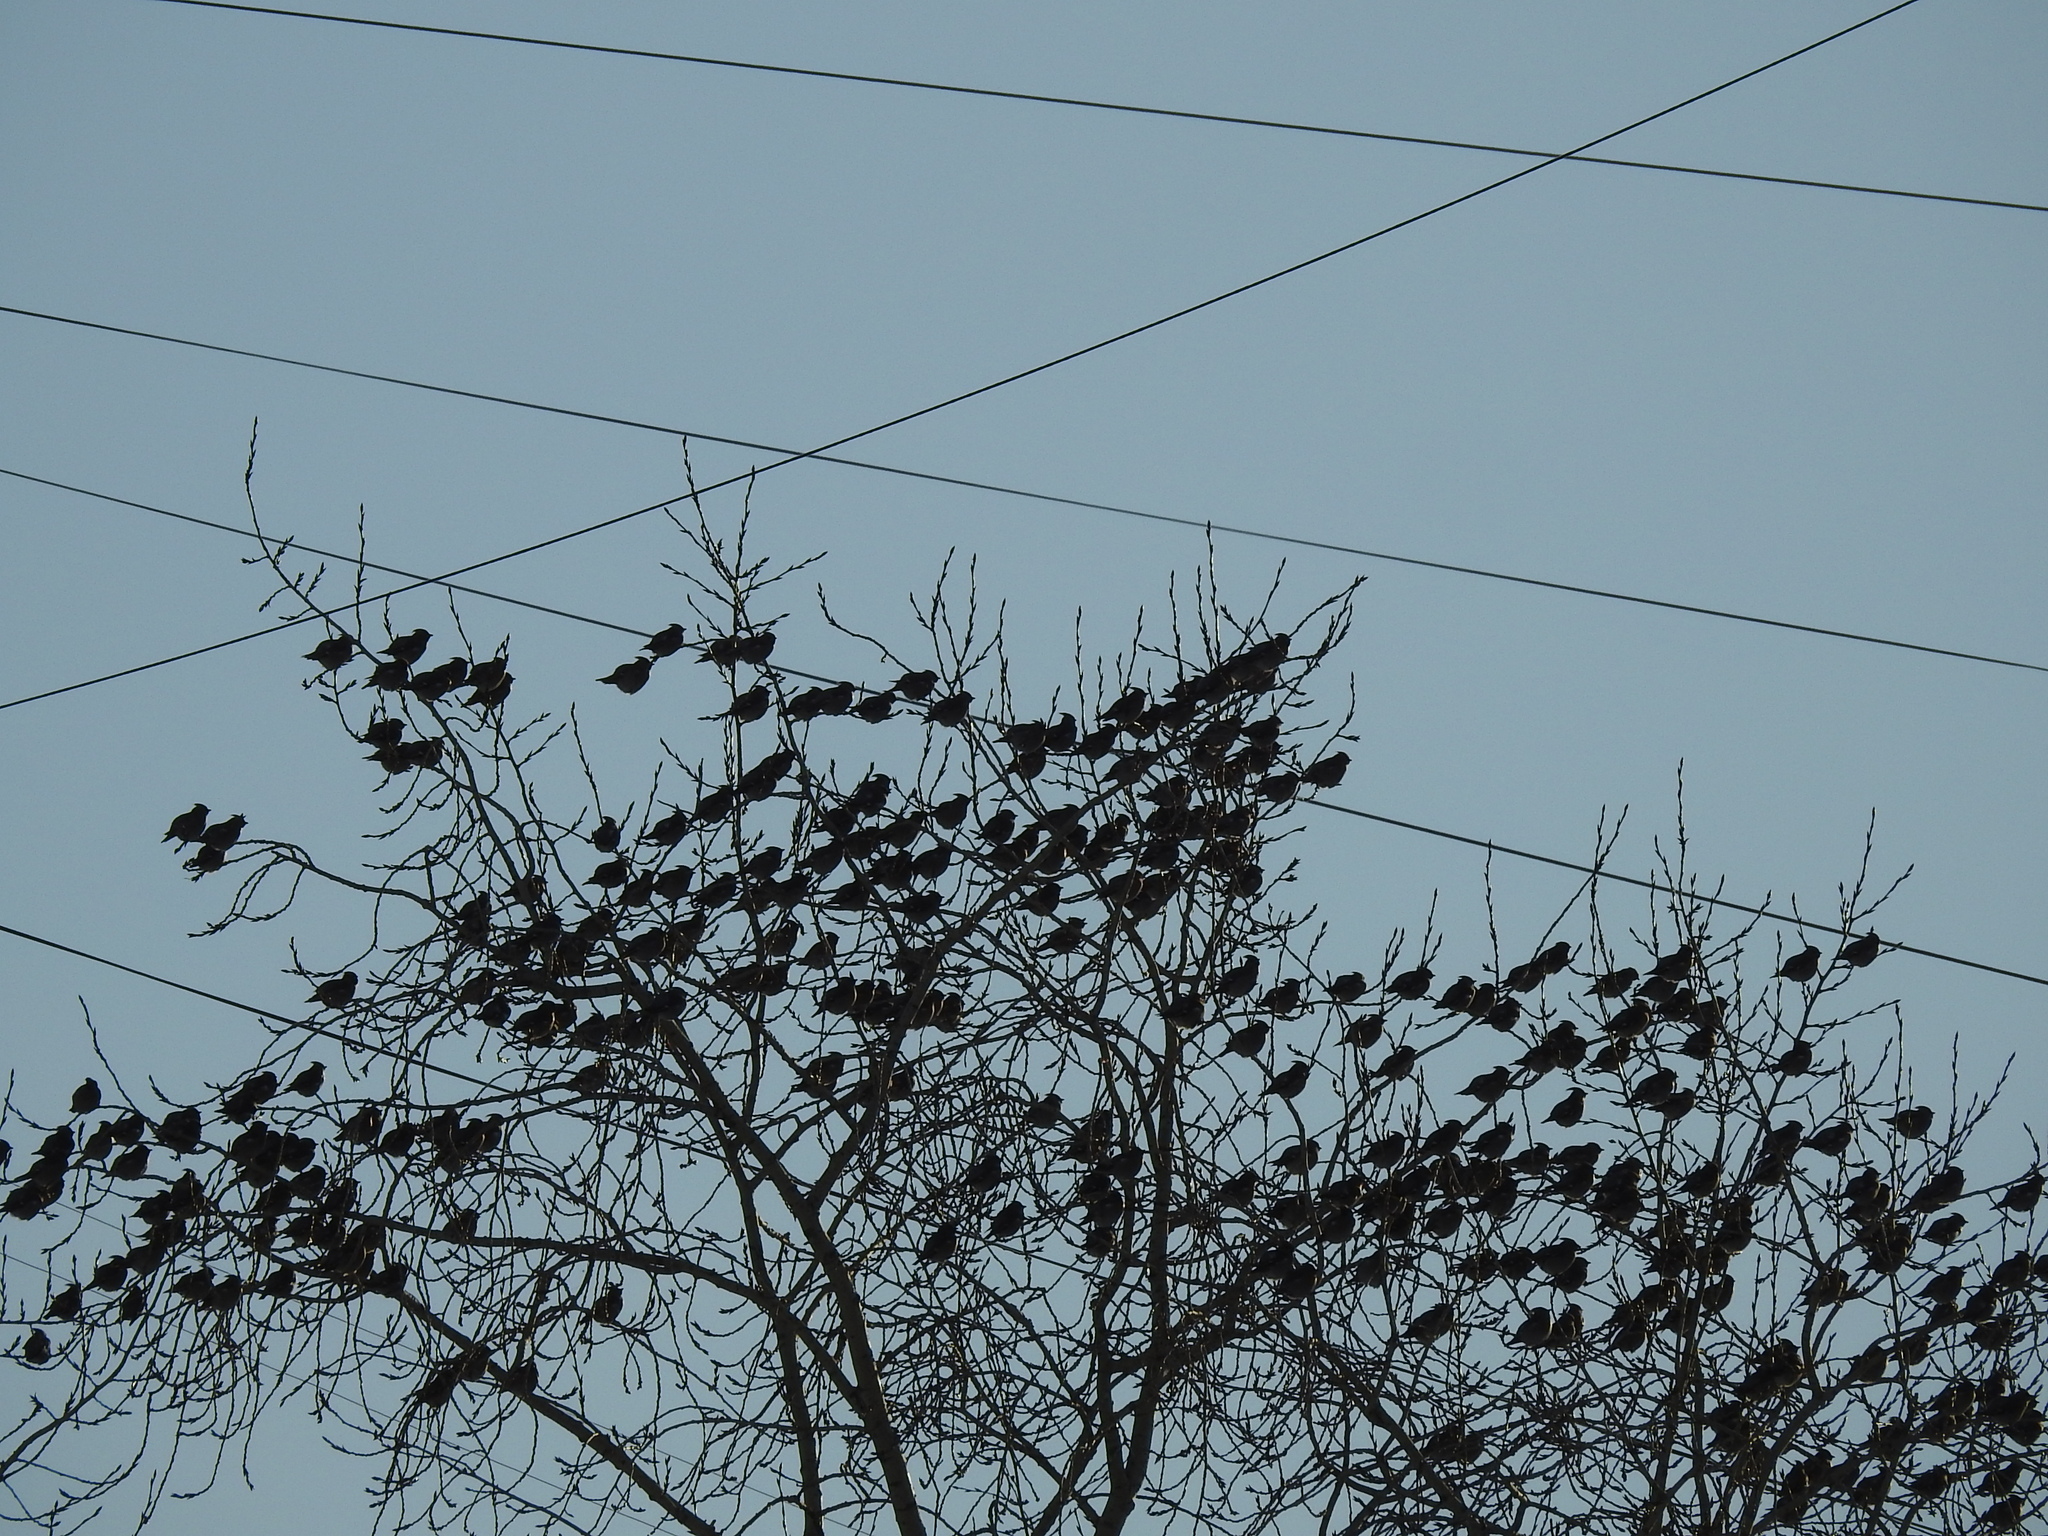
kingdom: Animalia
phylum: Chordata
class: Aves
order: Passeriformes
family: Bombycillidae
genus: Bombycilla
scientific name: Bombycilla garrulus
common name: Bohemian waxwing
